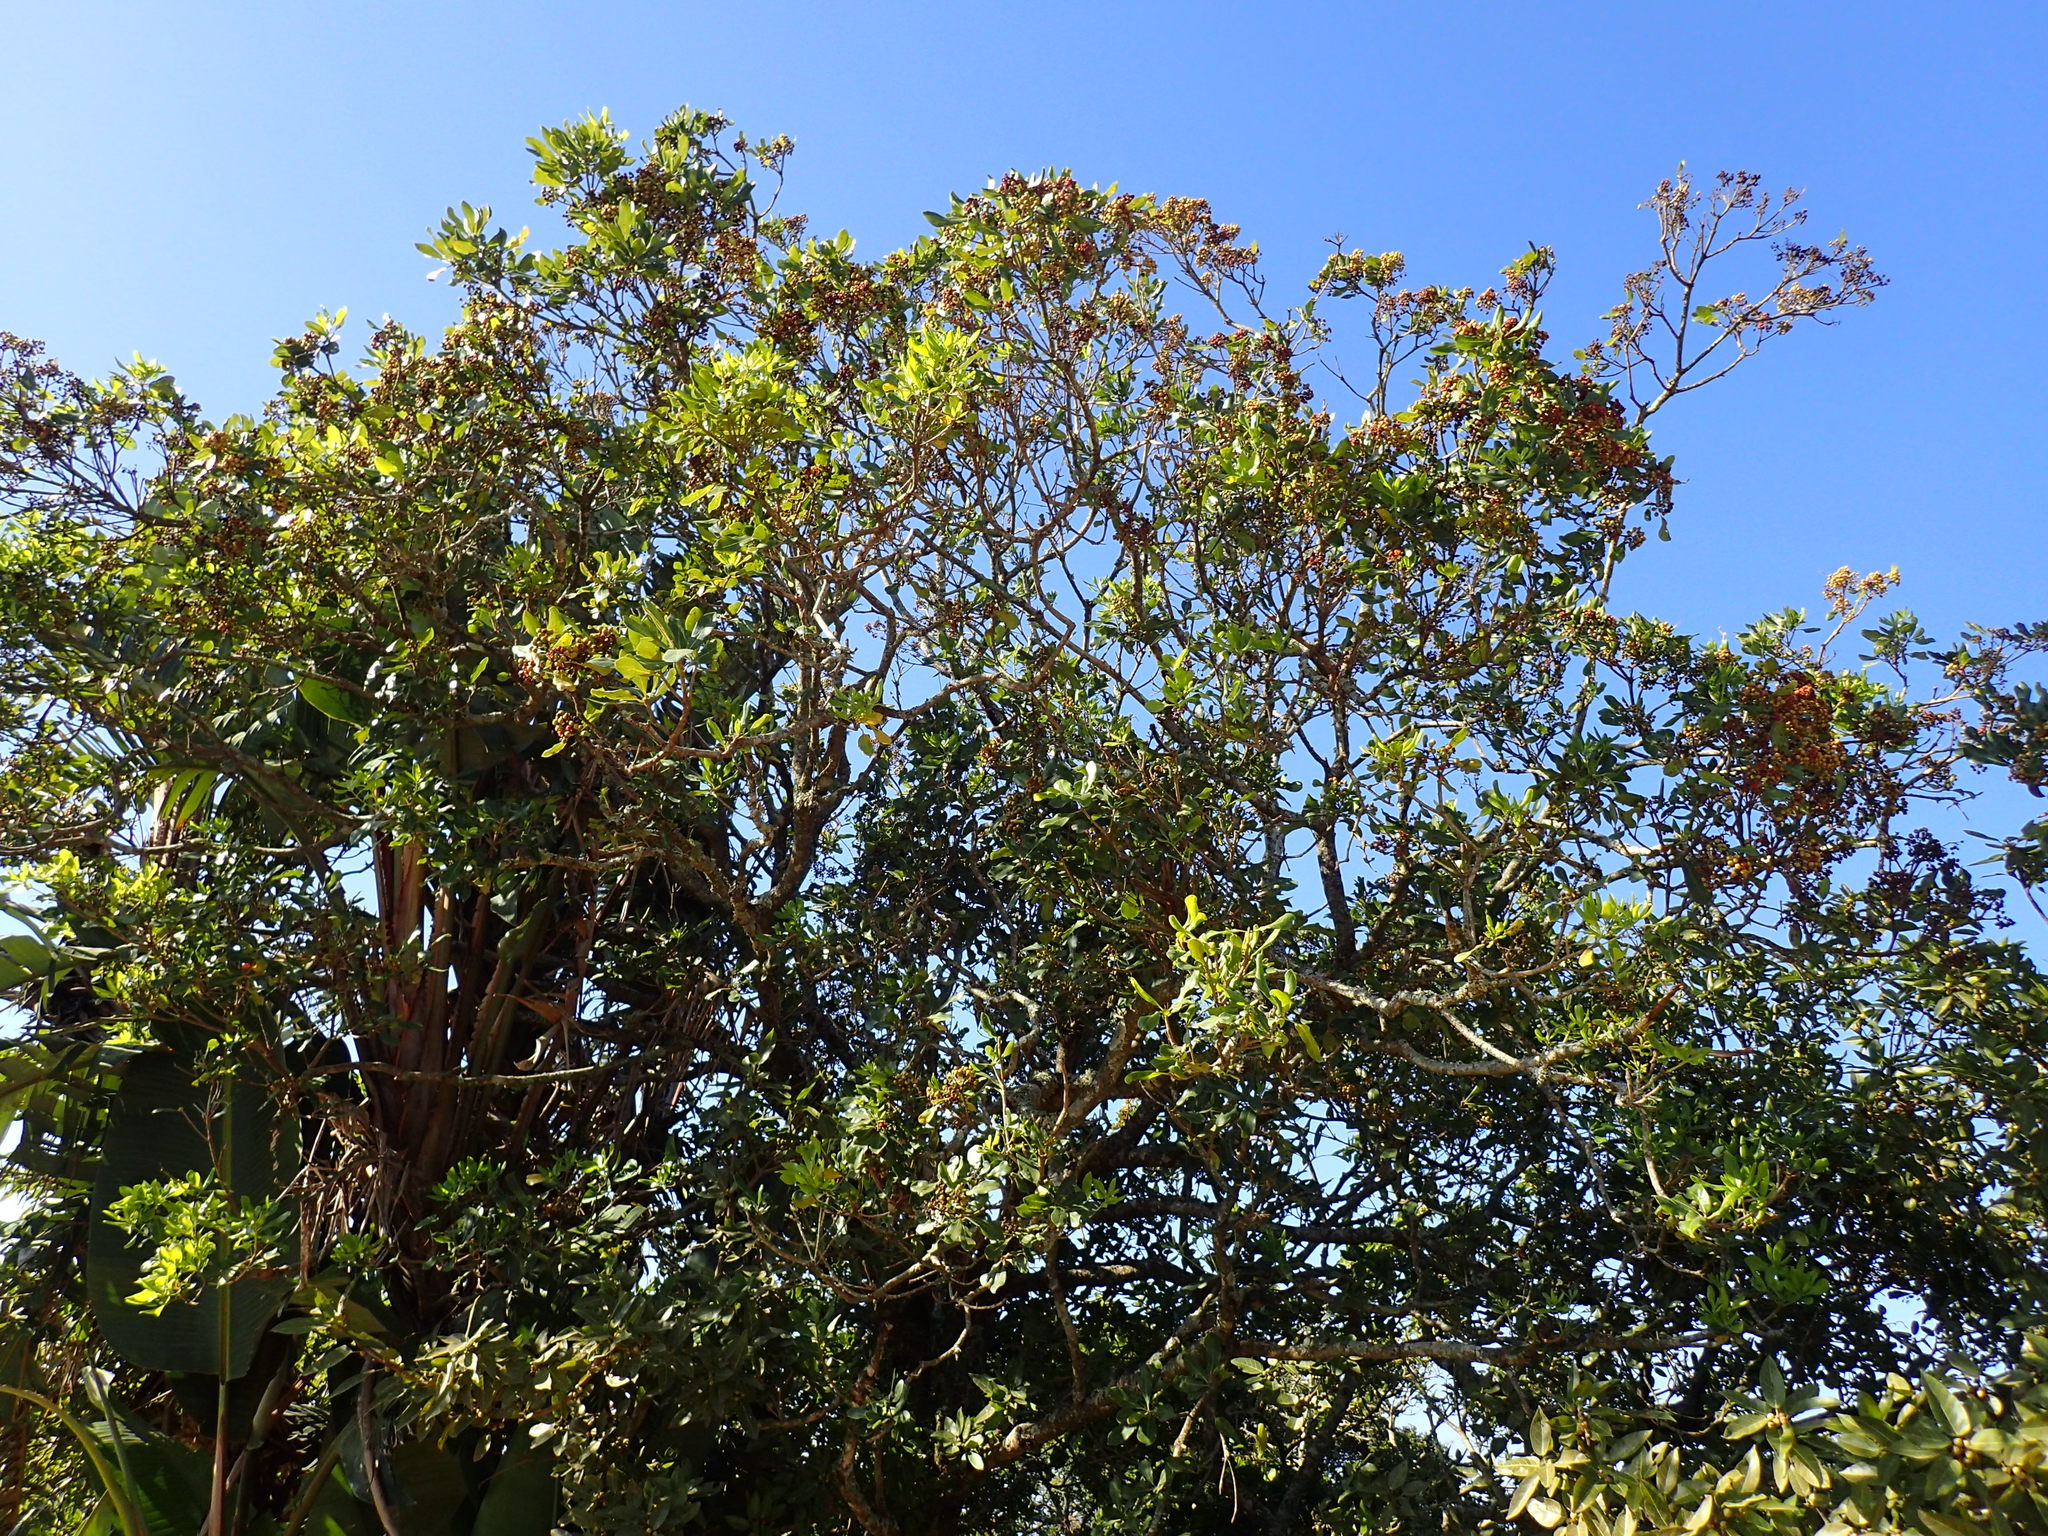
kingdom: Plantae
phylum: Tracheophyta
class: Magnoliopsida
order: Apiales
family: Pittosporaceae
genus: Pittosporum
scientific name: Pittosporum viridiflorum
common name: Cape cheesewood
